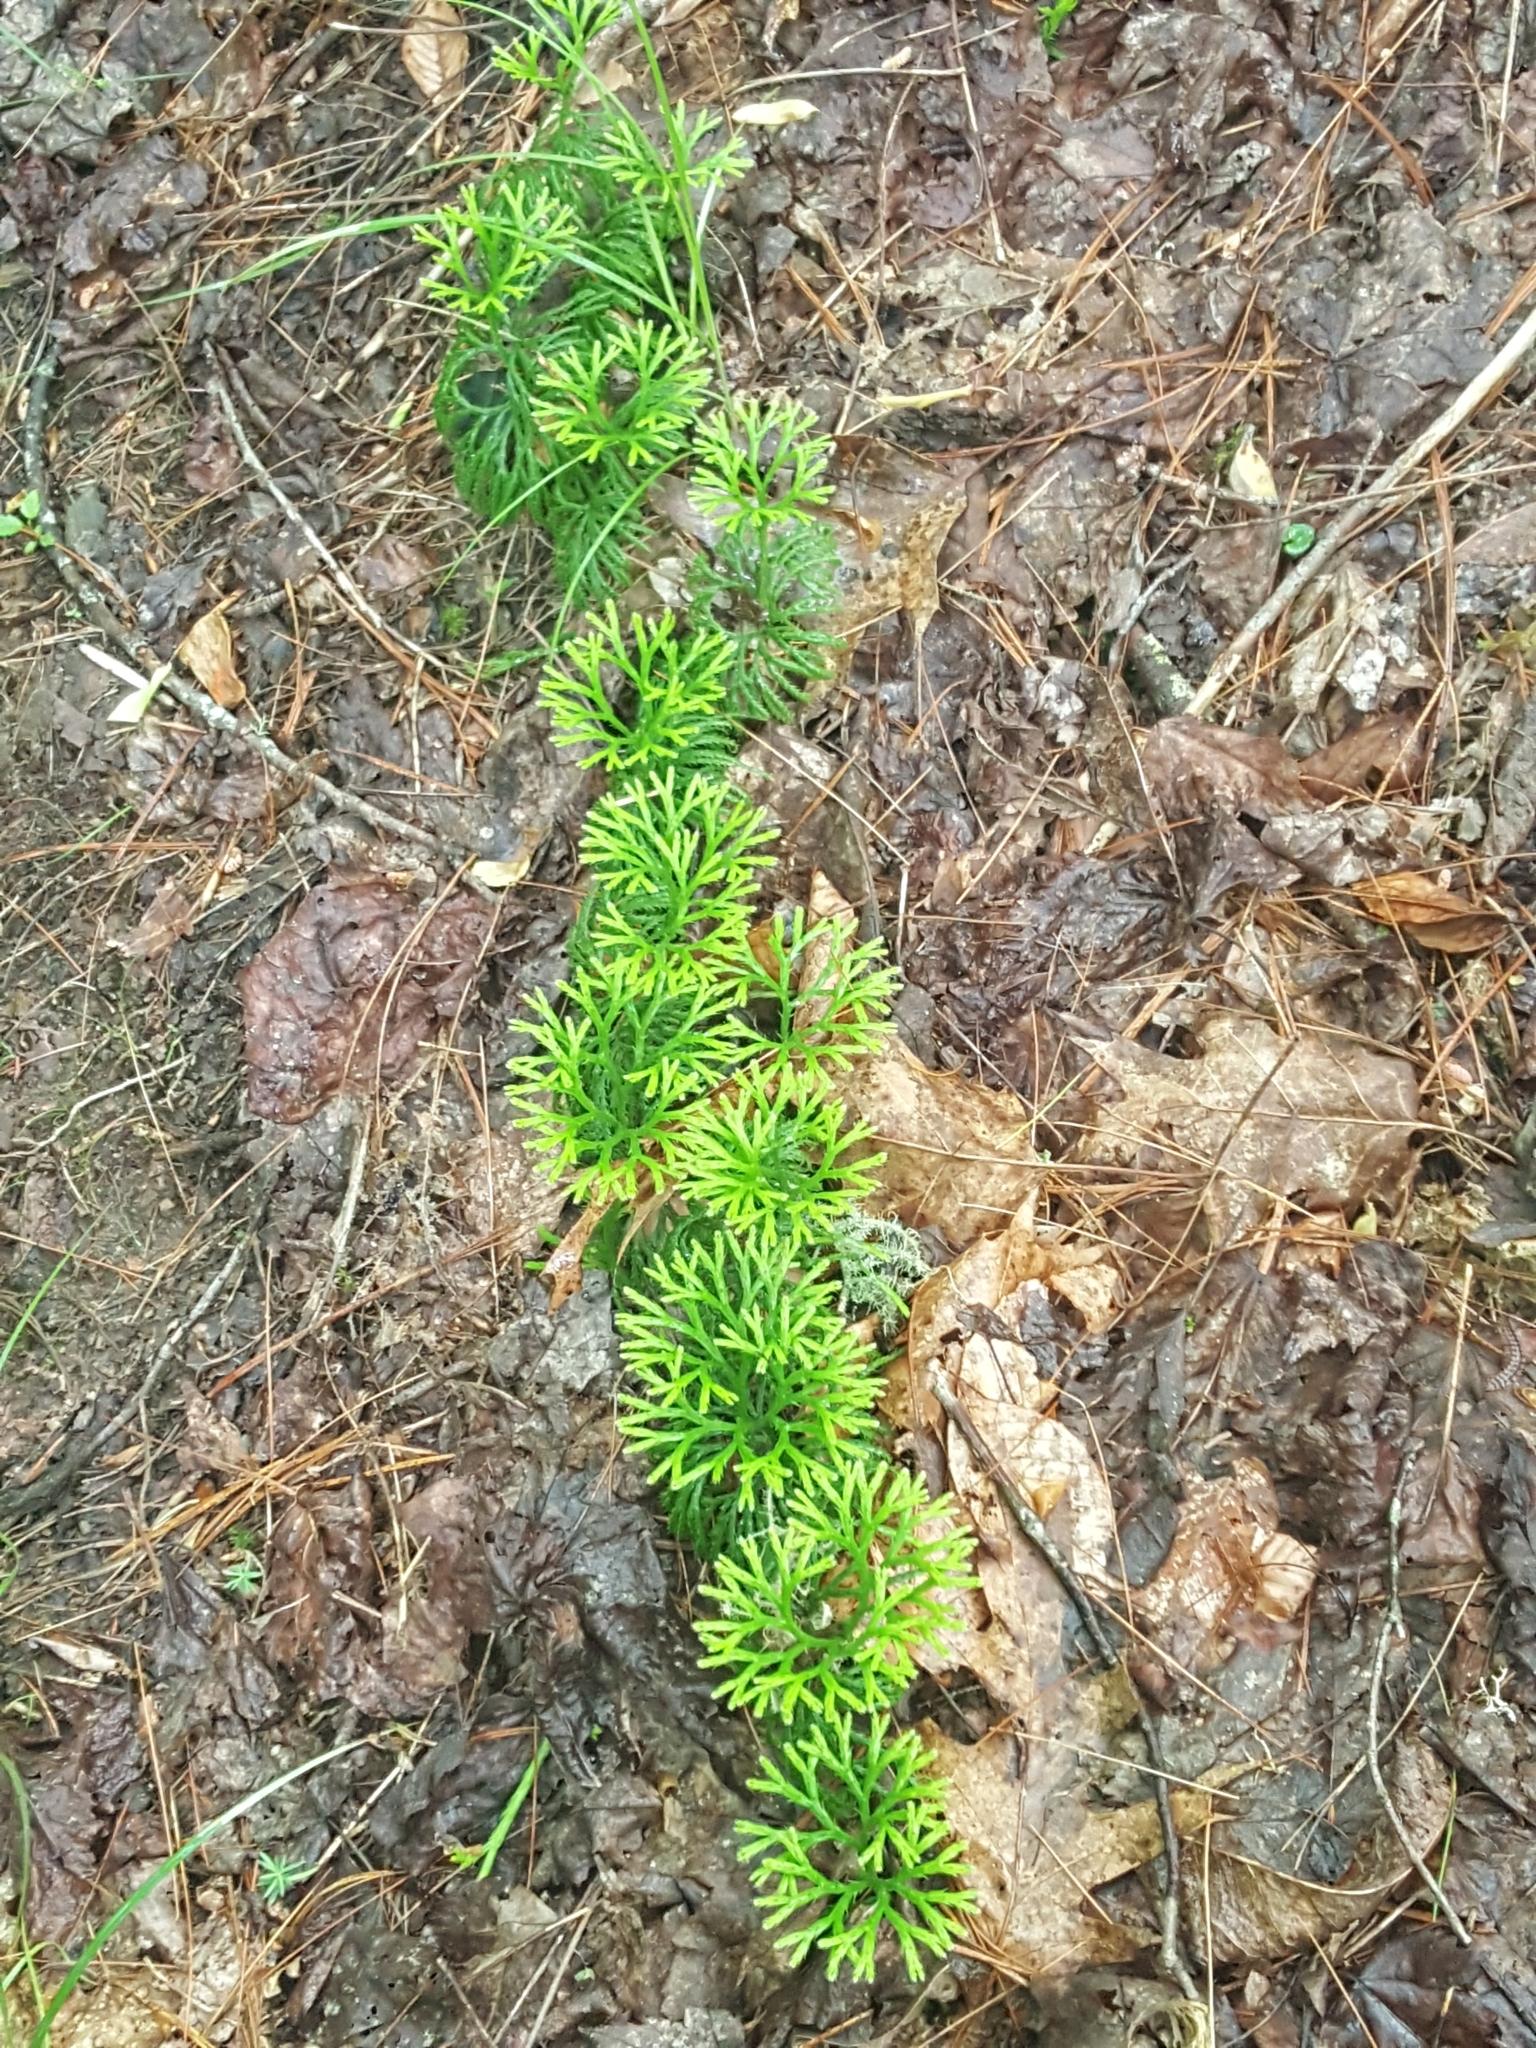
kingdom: Plantae
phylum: Tracheophyta
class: Lycopodiopsida
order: Lycopodiales
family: Lycopodiaceae
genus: Diphasiastrum
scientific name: Diphasiastrum digitatum
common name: Southern running-pine
